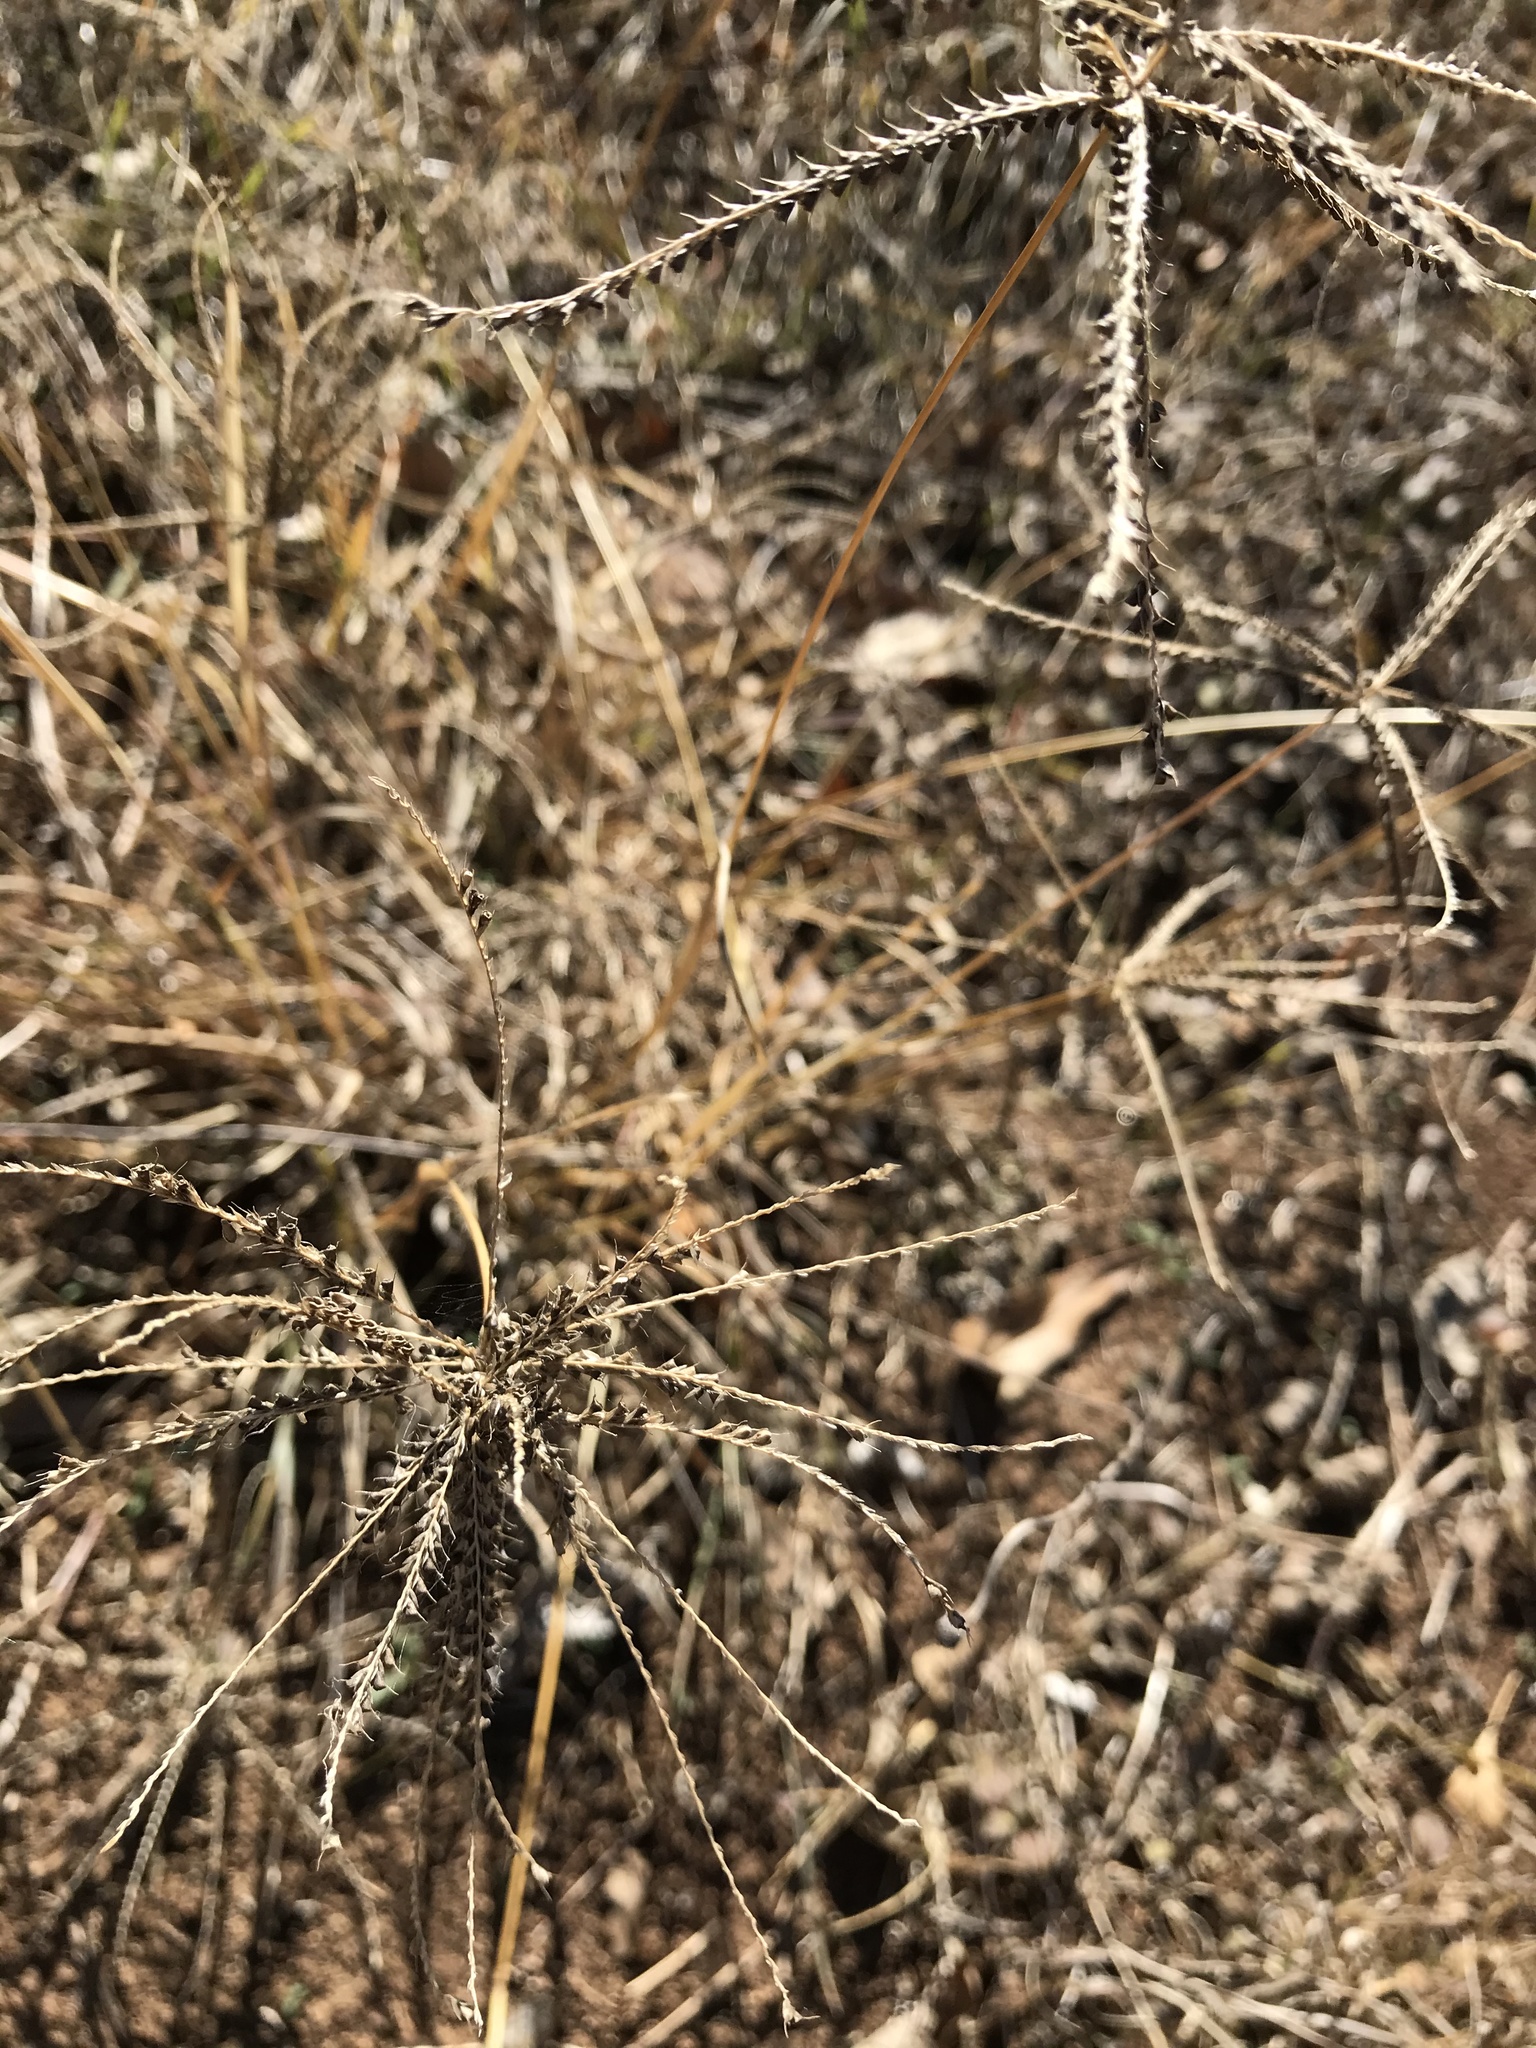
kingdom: Plantae
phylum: Tracheophyta
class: Liliopsida
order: Poales
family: Poaceae
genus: Chloris
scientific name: Chloris subdolichostachya
